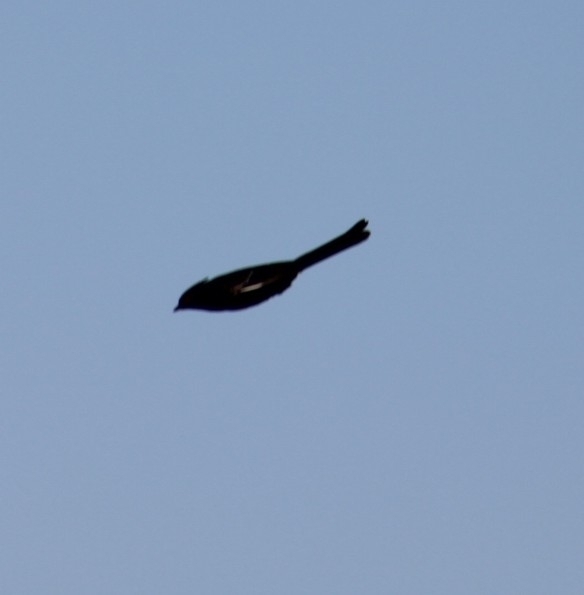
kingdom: Animalia
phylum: Chordata
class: Aves
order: Passeriformes
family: Ptilogonatidae
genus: Phainopepla
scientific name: Phainopepla nitens
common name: Phainopepla
